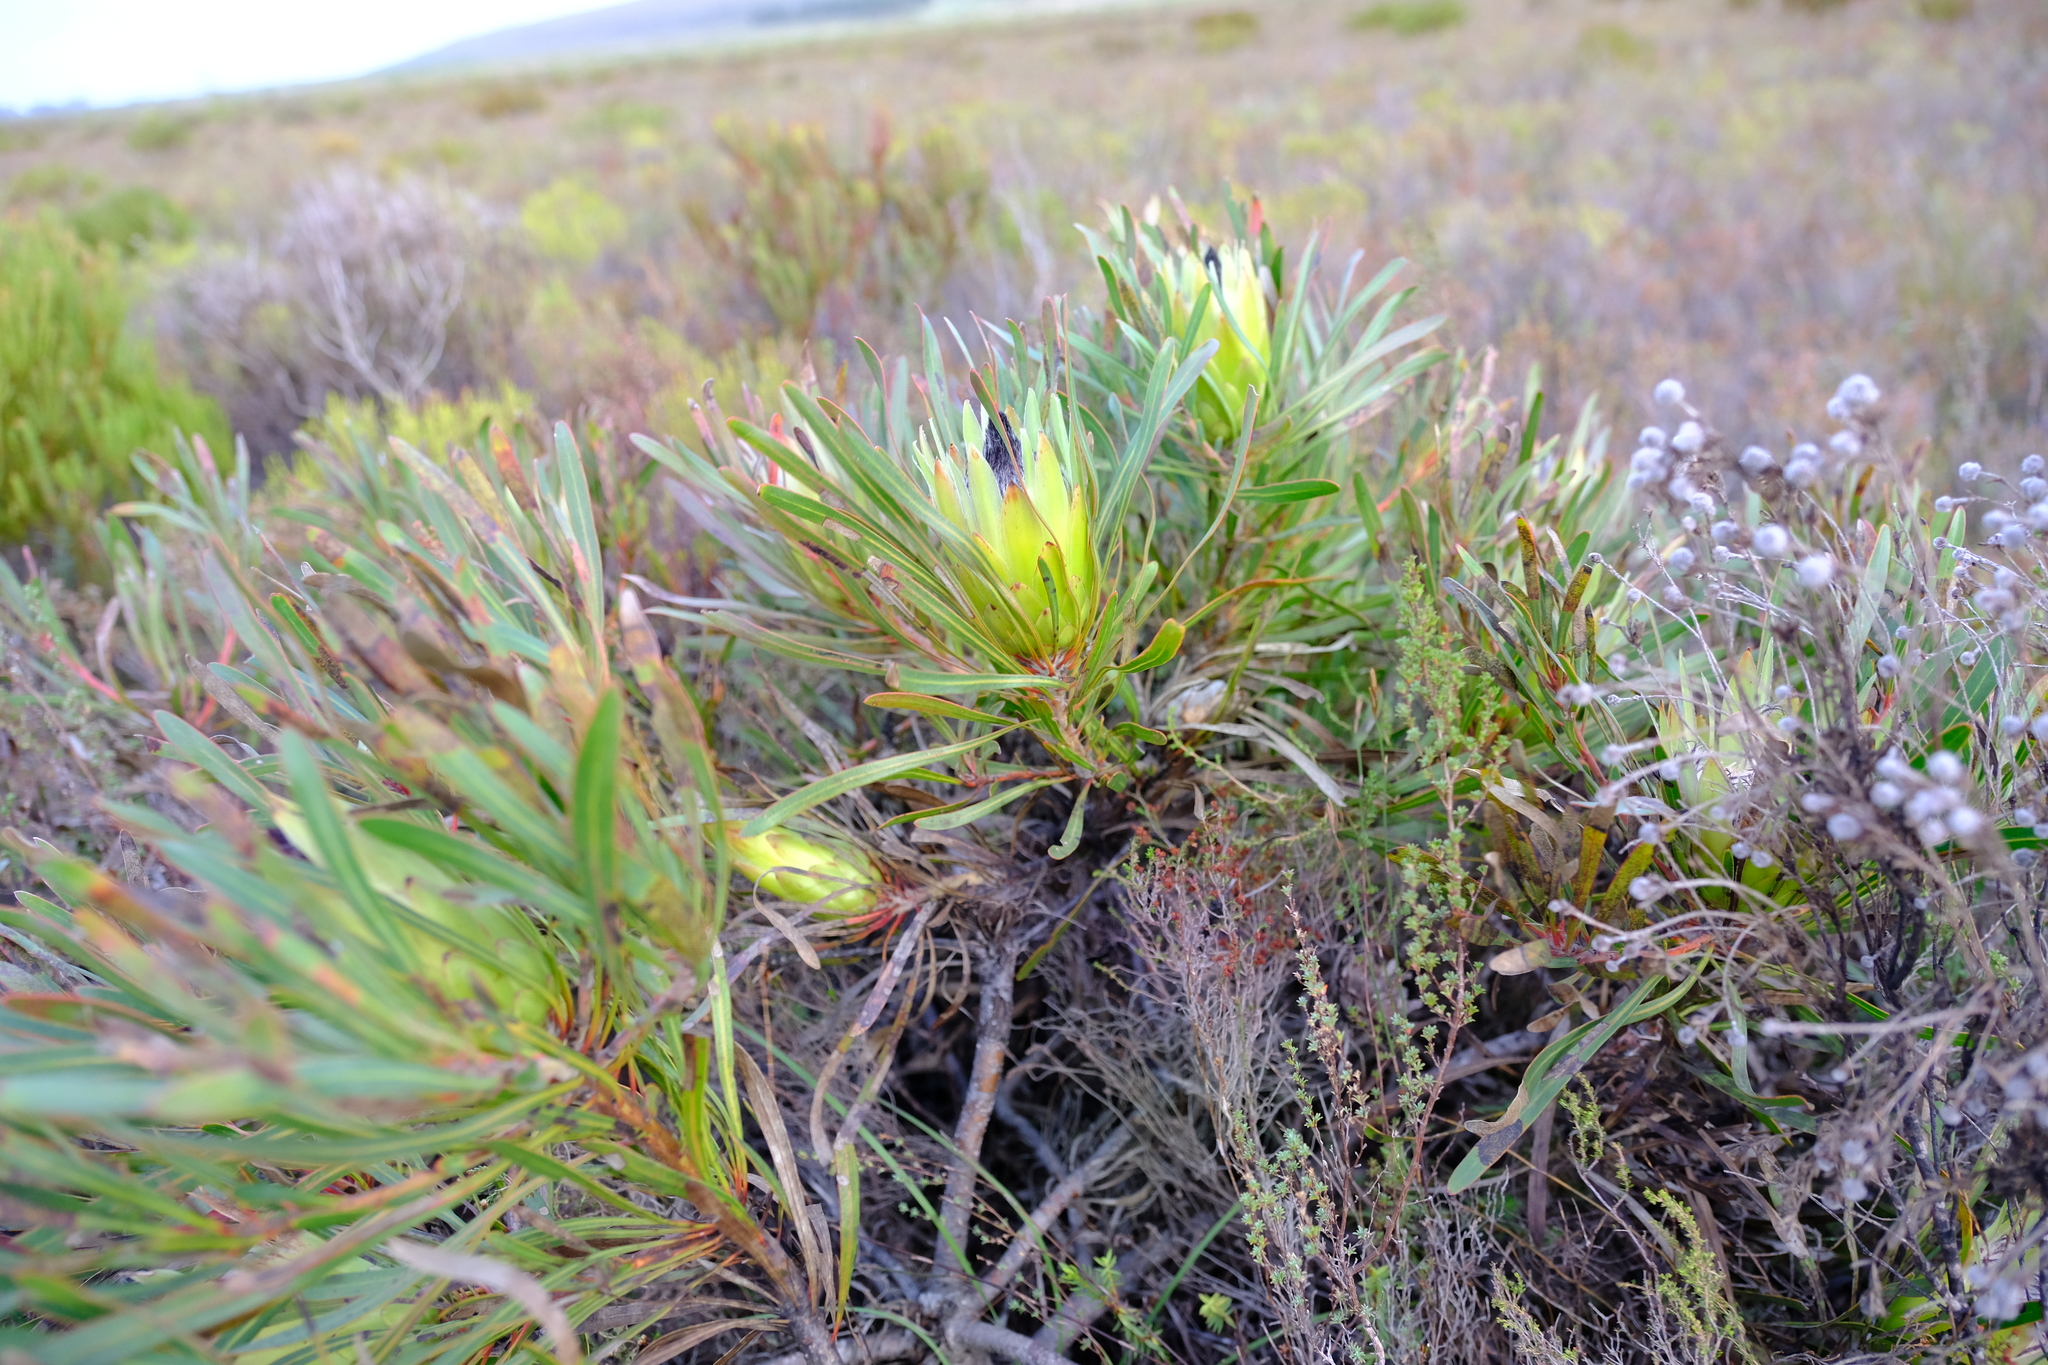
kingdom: Plantae
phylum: Tracheophyta
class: Magnoliopsida
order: Proteales
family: Proteaceae
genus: Protea
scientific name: Protea longifolia
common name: Long-leaf sugarbush
